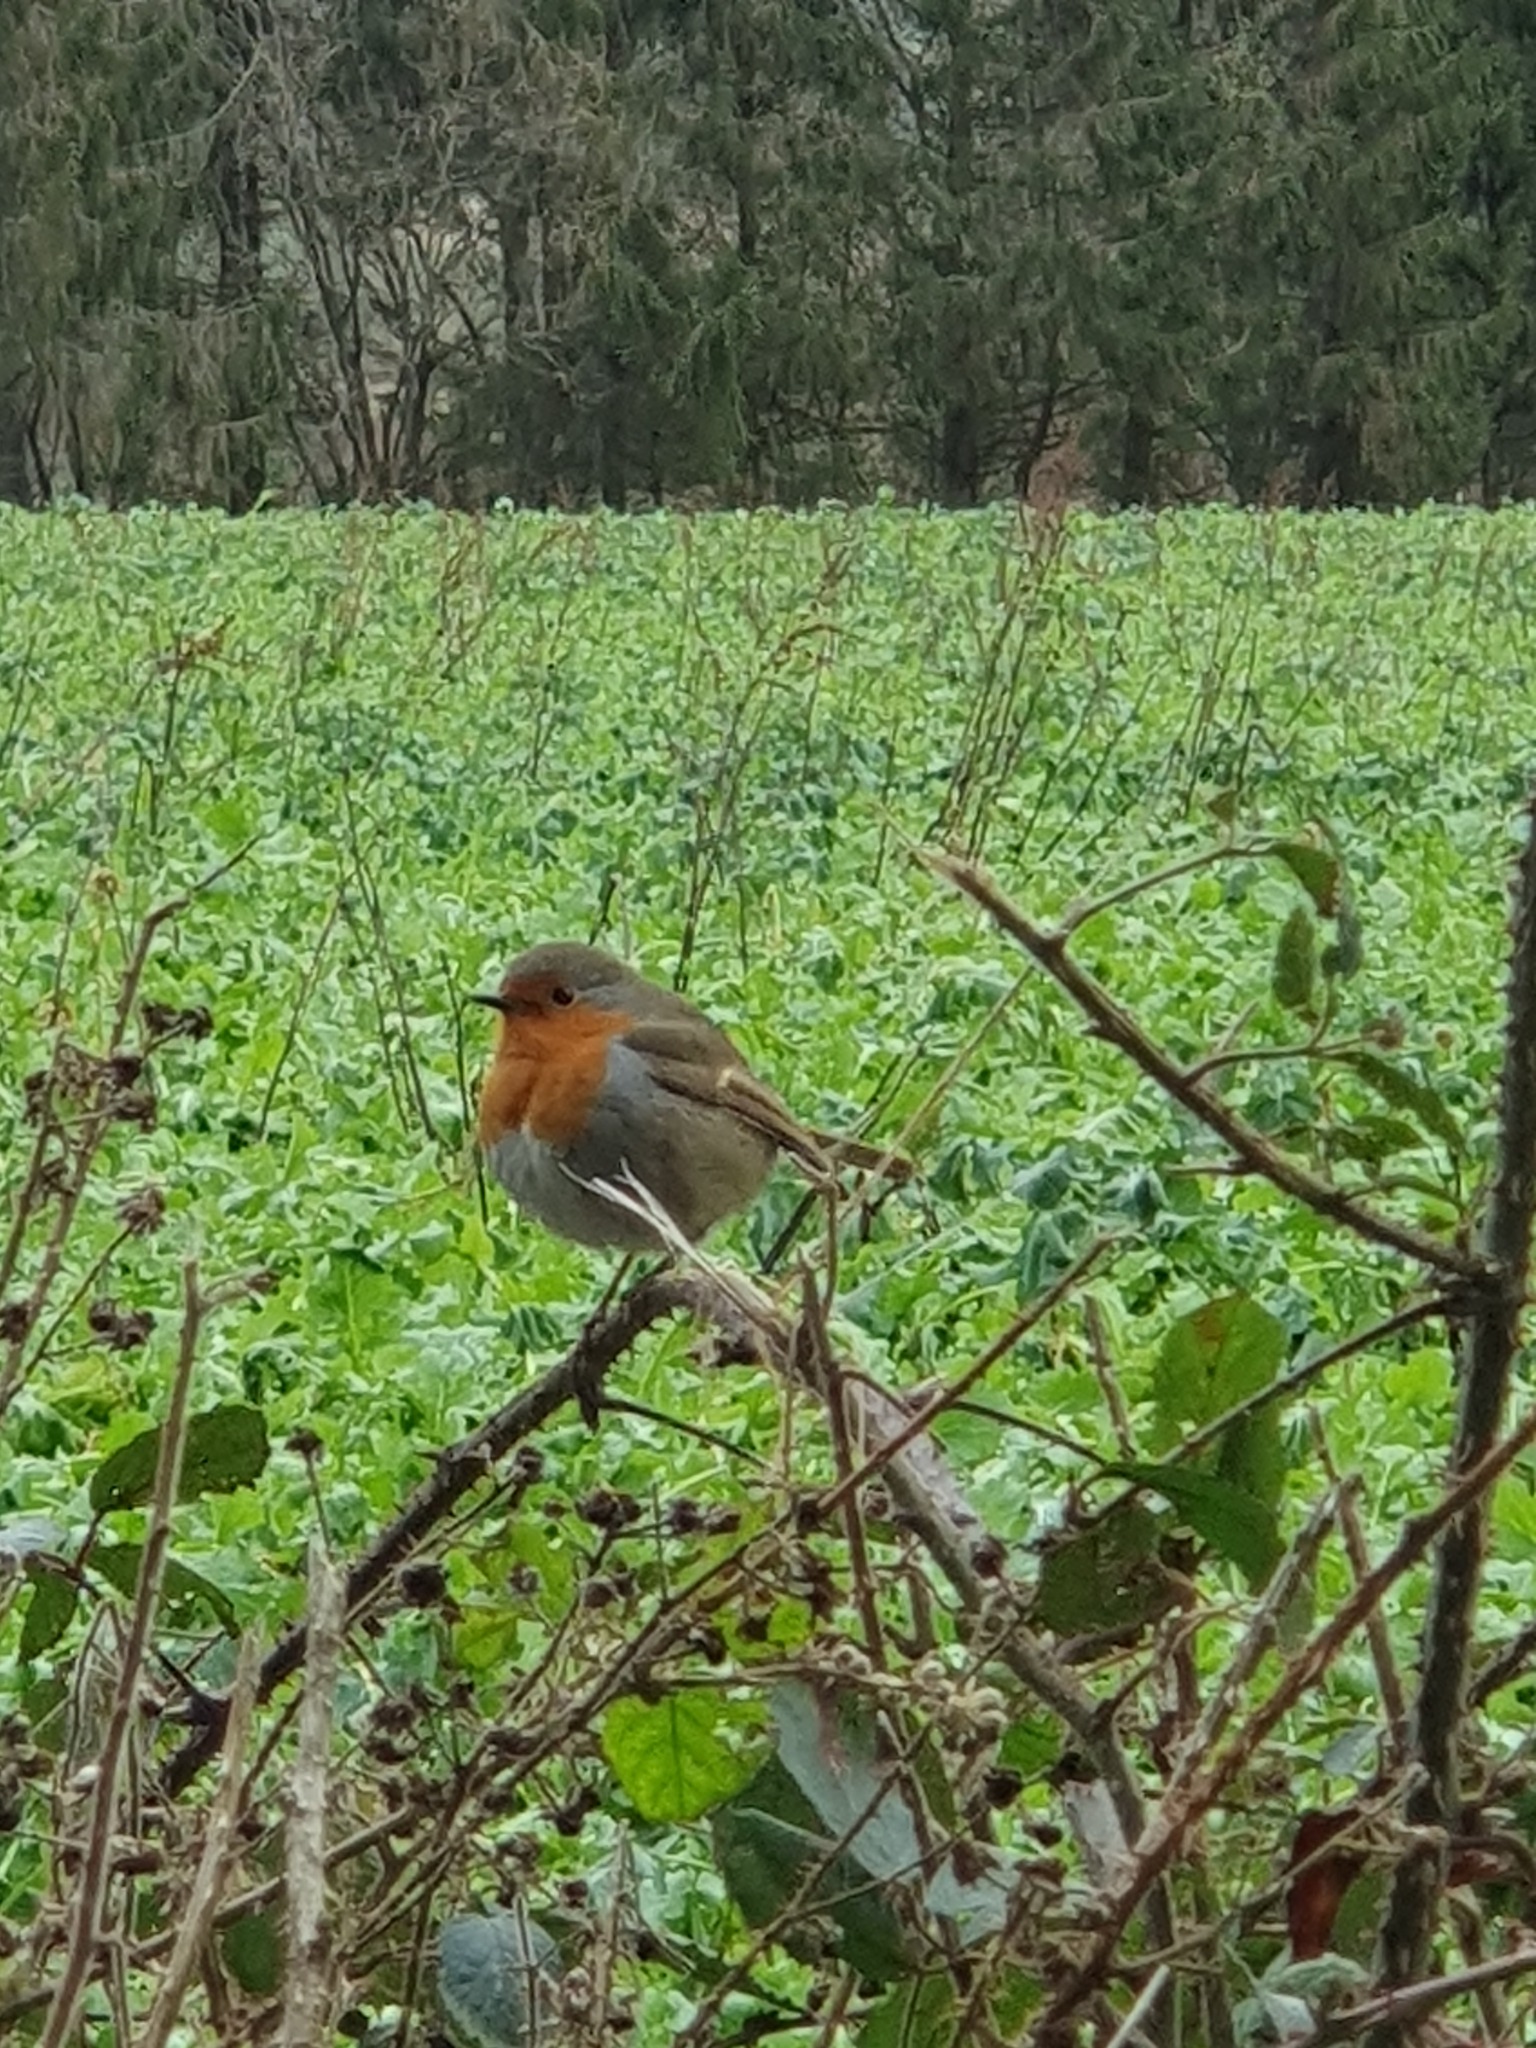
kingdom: Animalia
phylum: Chordata
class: Aves
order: Passeriformes
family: Muscicapidae
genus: Erithacus
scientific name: Erithacus rubecula
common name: European robin
